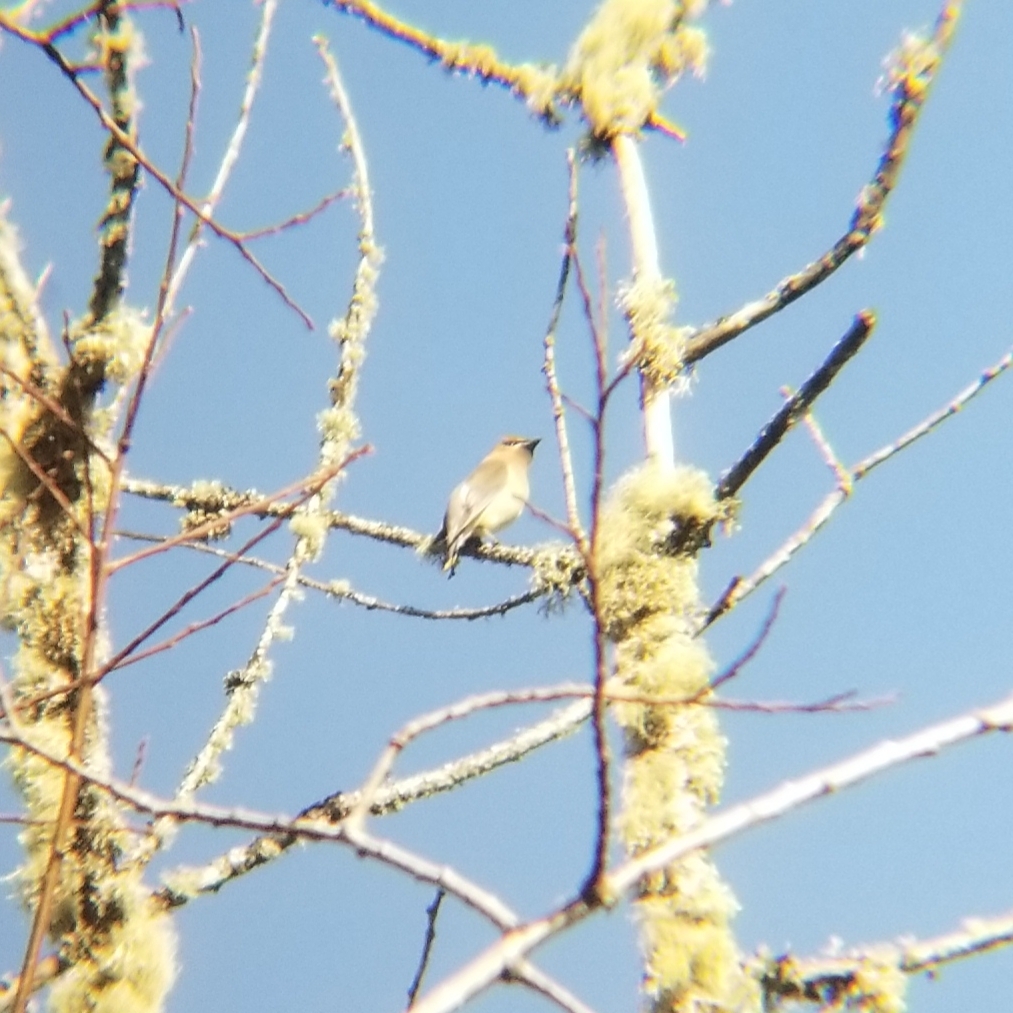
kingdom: Animalia
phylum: Chordata
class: Aves
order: Passeriformes
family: Bombycillidae
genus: Bombycilla
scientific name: Bombycilla cedrorum
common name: Cedar waxwing
